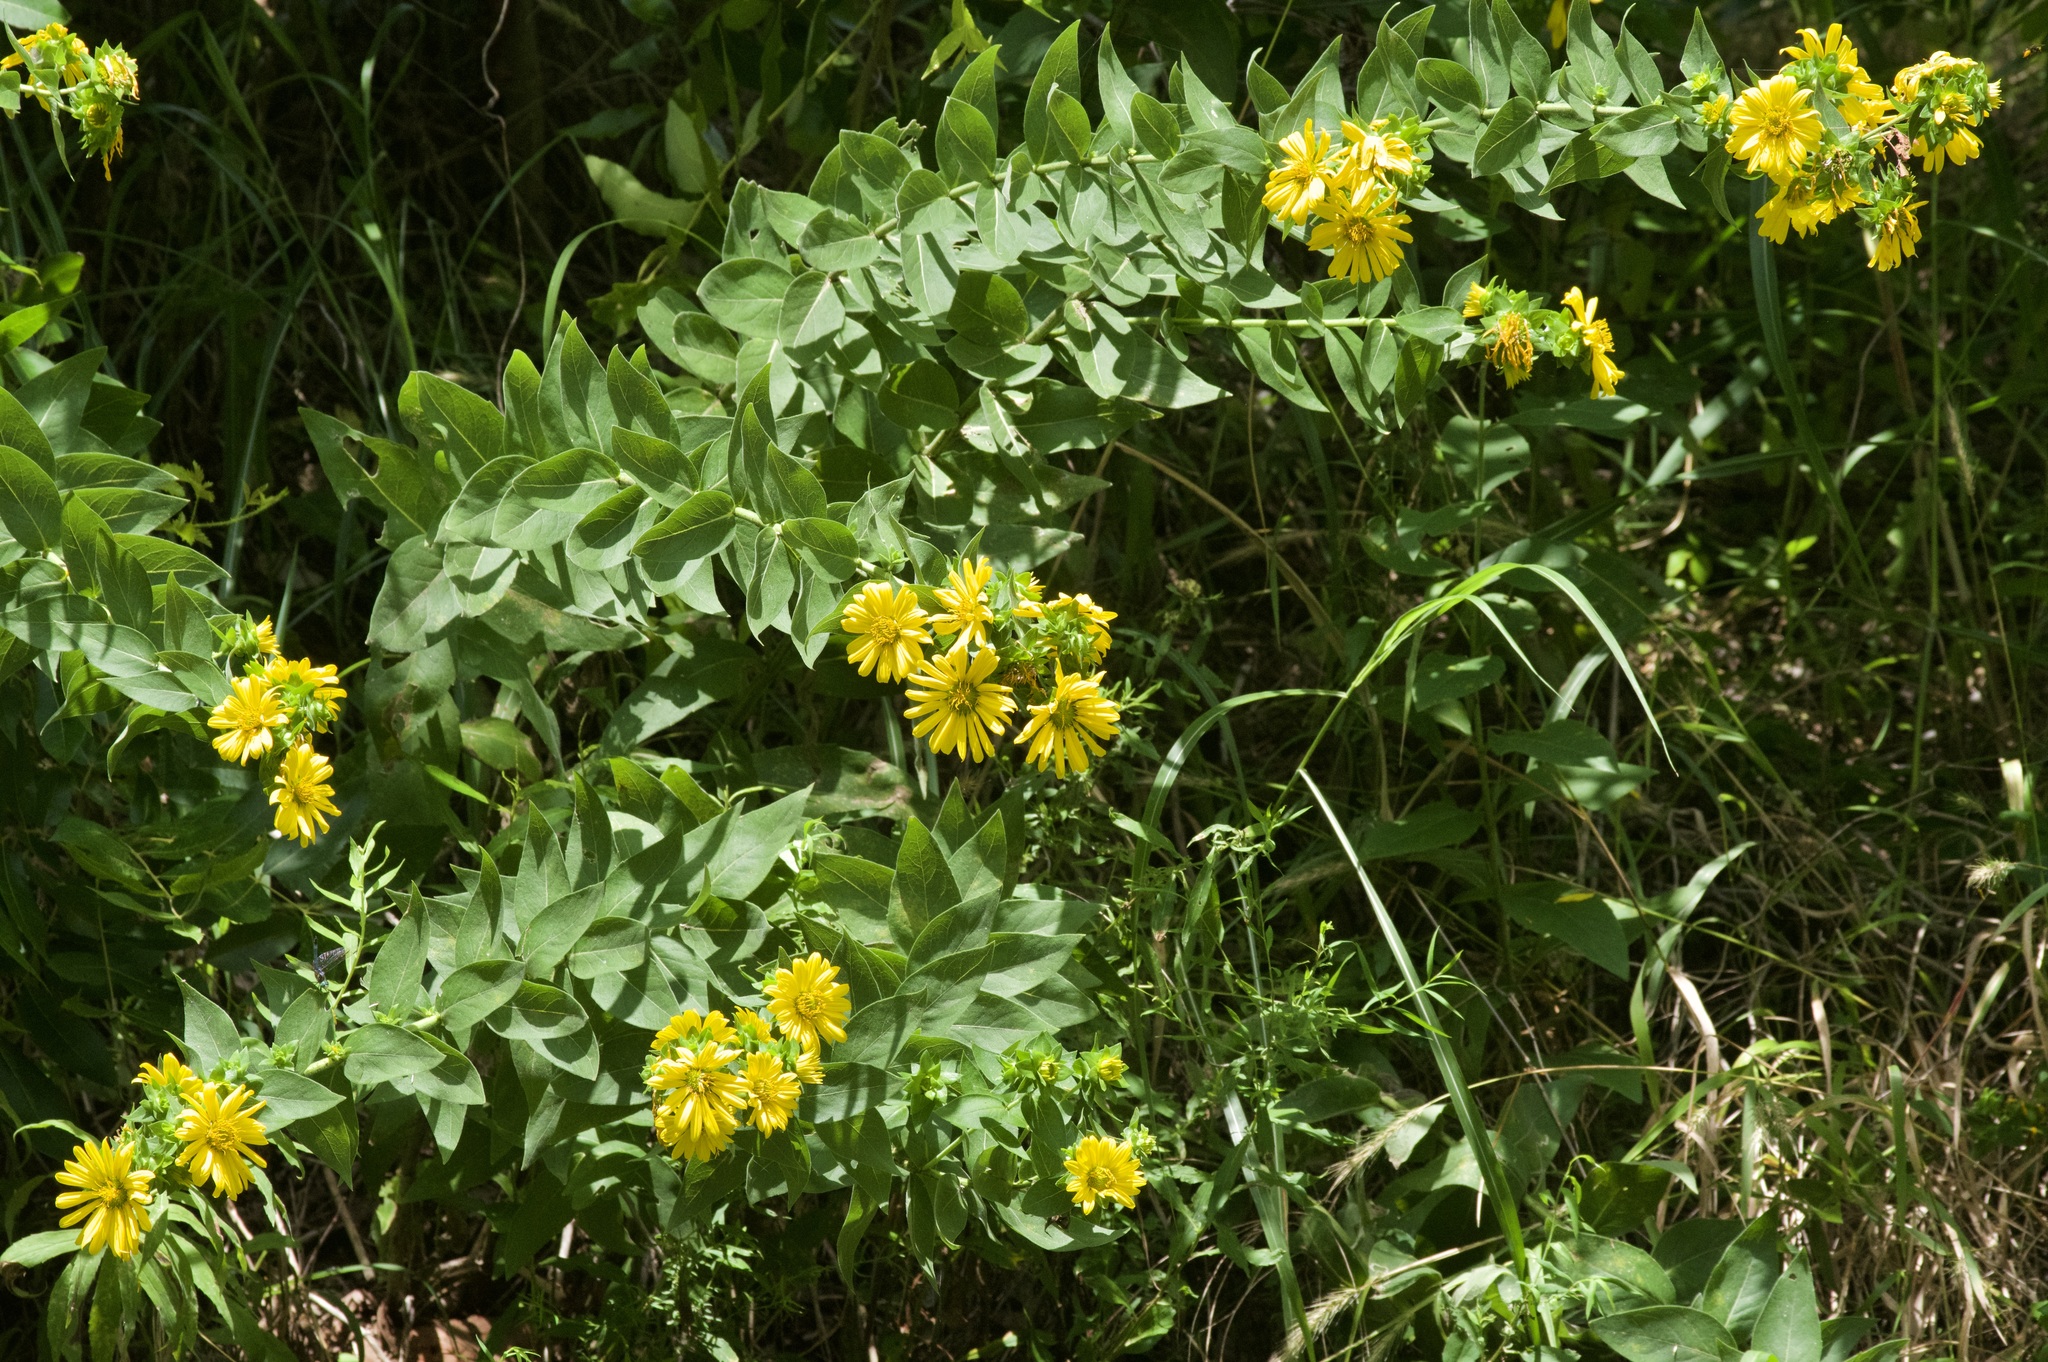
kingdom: Plantae
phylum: Tracheophyta
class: Magnoliopsida
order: Asterales
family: Asteraceae
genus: Silphium
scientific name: Silphium radula
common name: Roughleaf rosinweed
